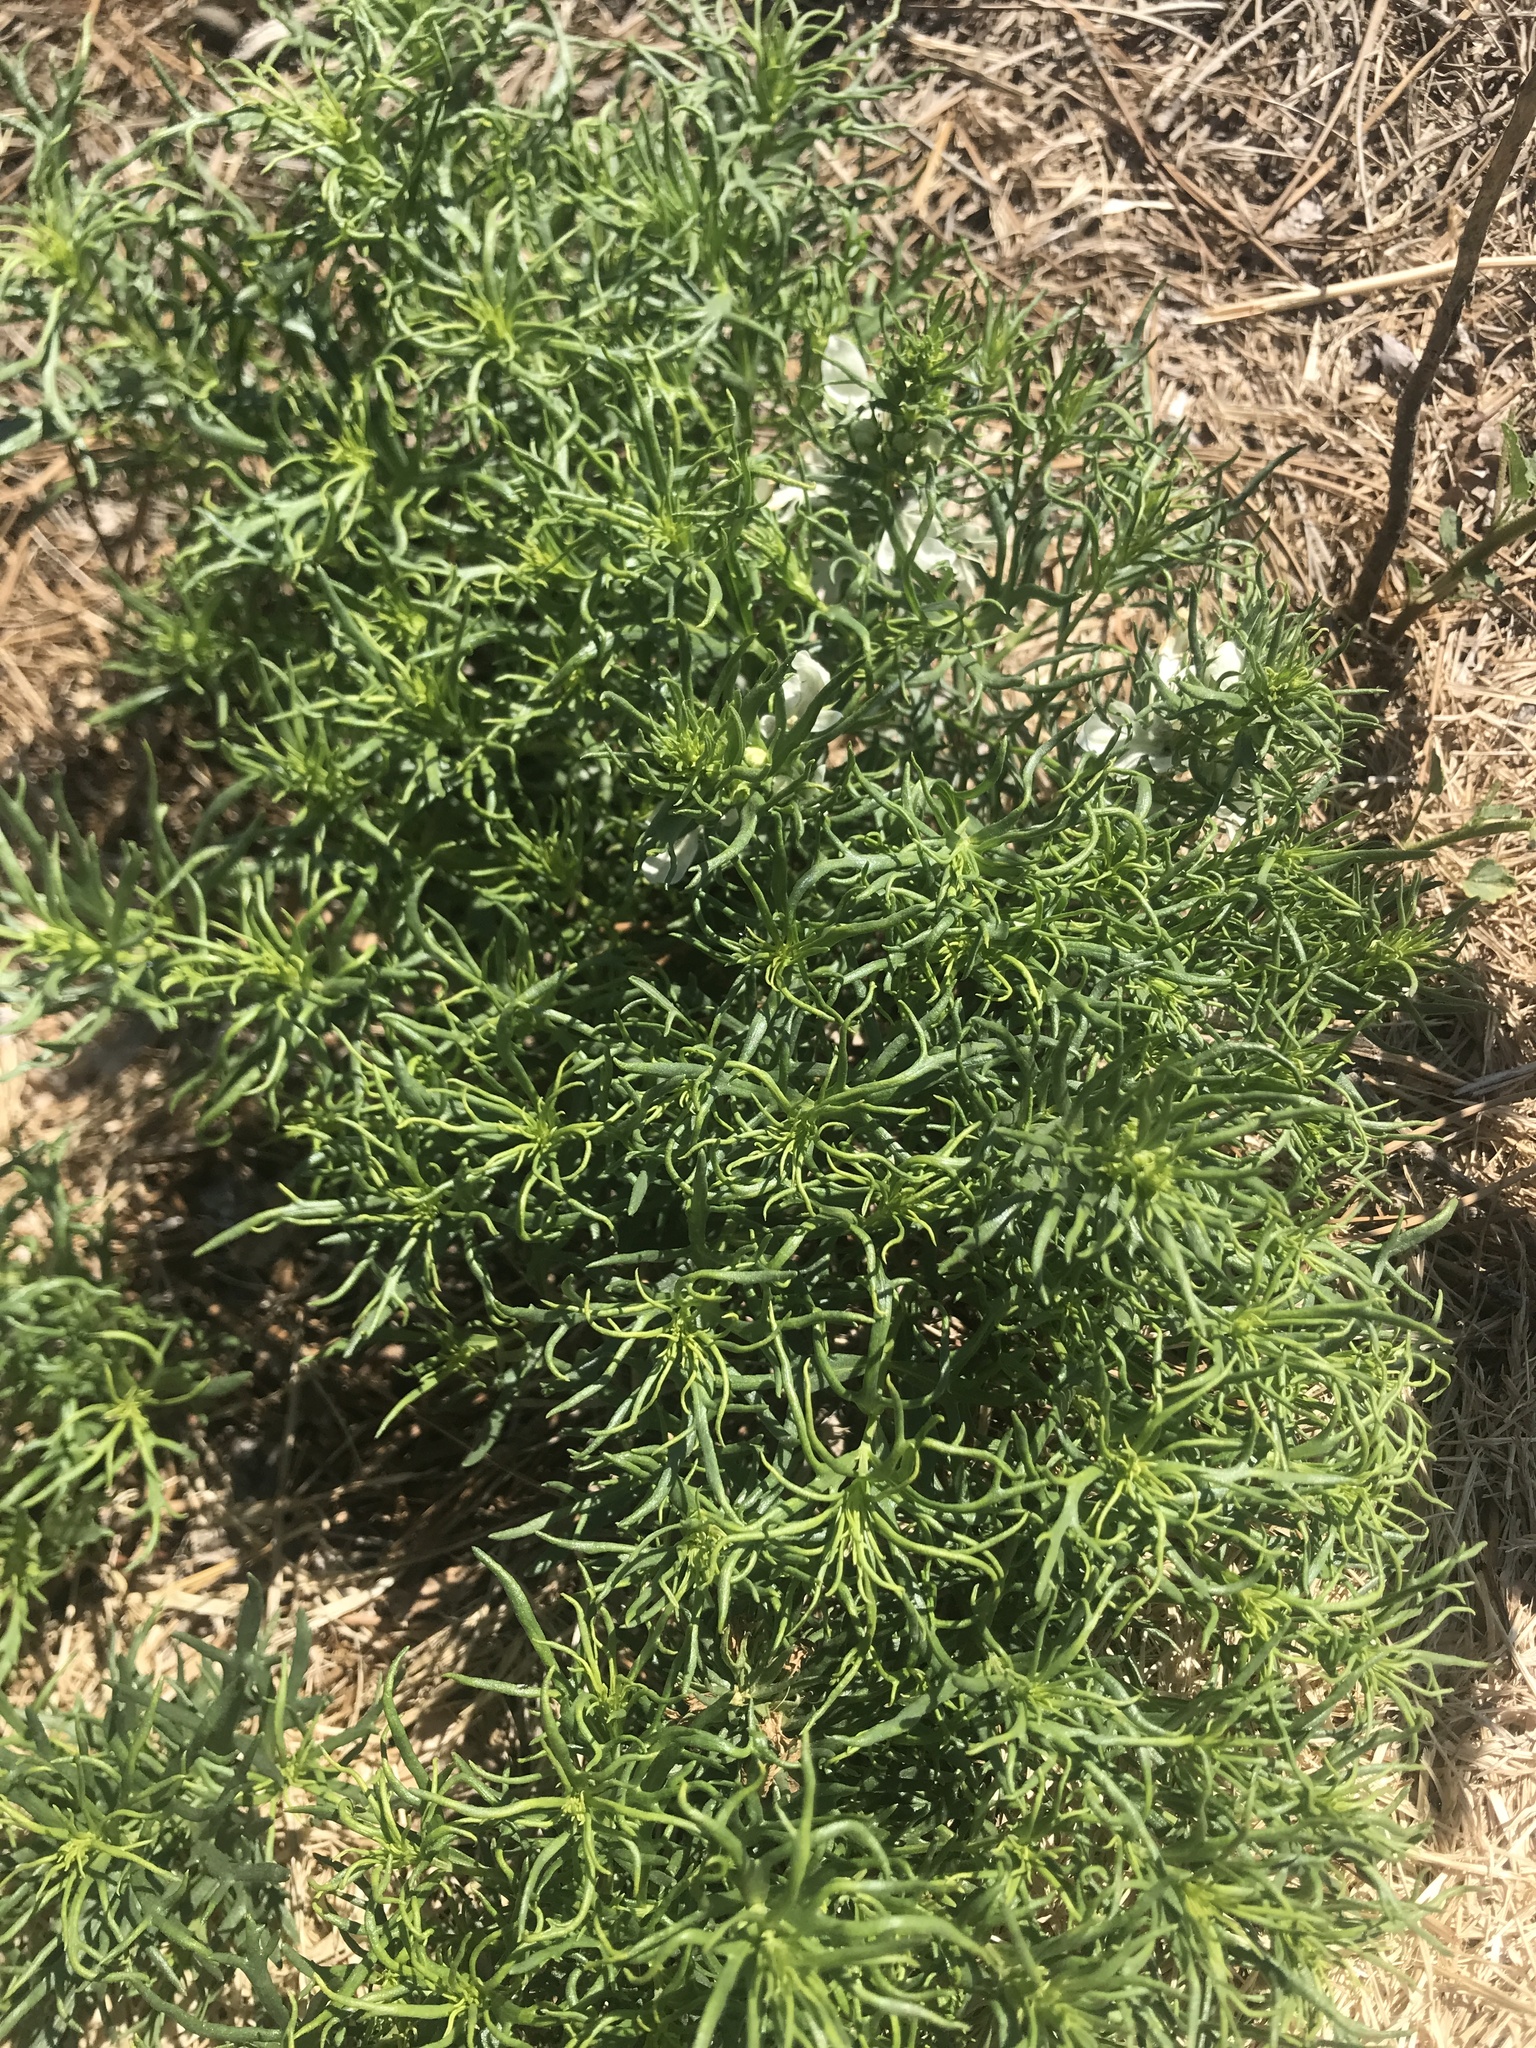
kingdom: Plantae
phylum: Tracheophyta
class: Magnoliopsida
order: Lamiales
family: Lamiaceae
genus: Teucrium
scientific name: Teucrium laciniatum
